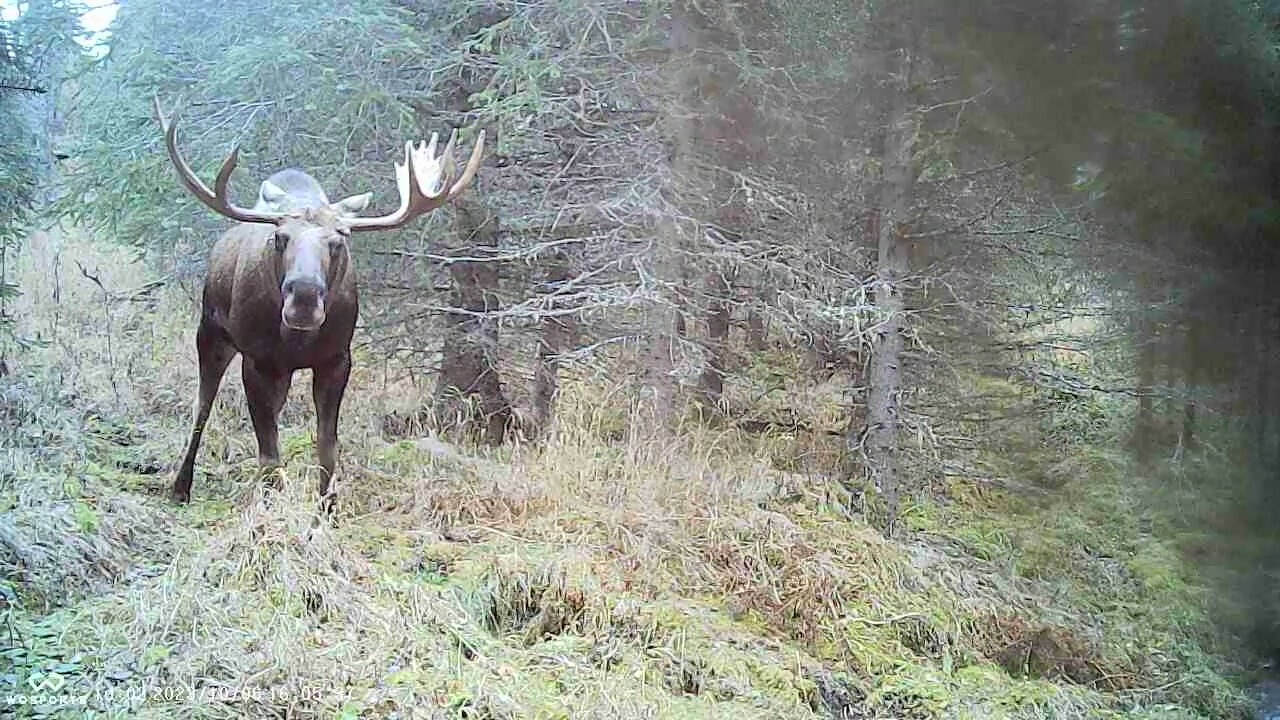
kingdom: Animalia
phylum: Chordata
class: Mammalia
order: Artiodactyla
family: Cervidae
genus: Alces
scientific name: Alces alces
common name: Moose
